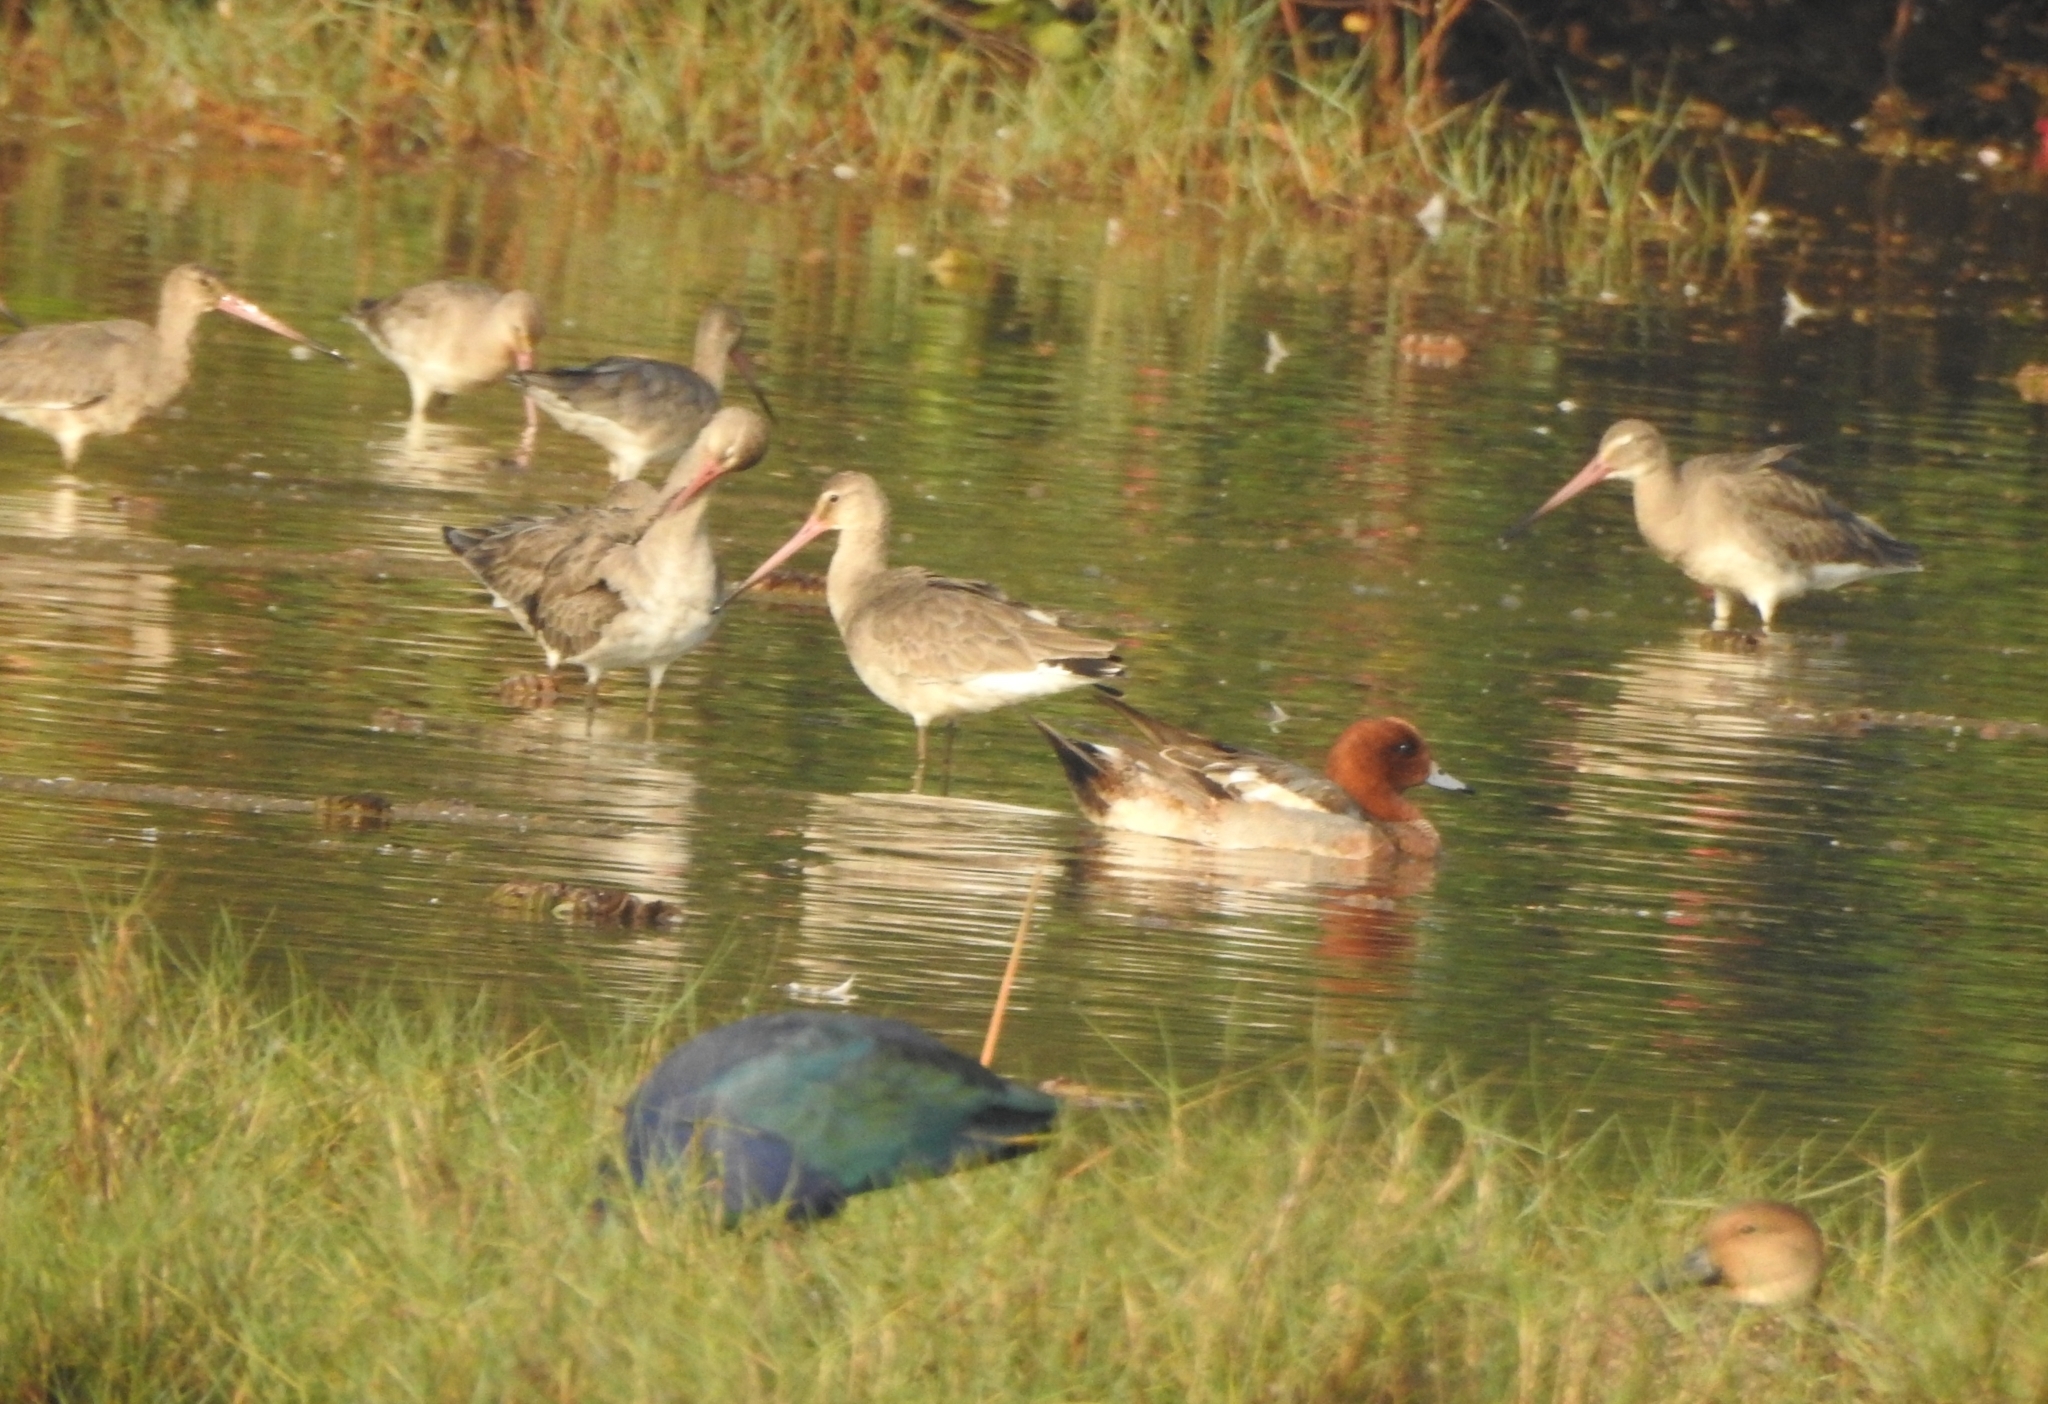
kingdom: Animalia
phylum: Chordata
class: Aves
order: Gruiformes
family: Rallidae
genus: Porphyrio
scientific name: Porphyrio porphyrio
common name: Purple swamphen
